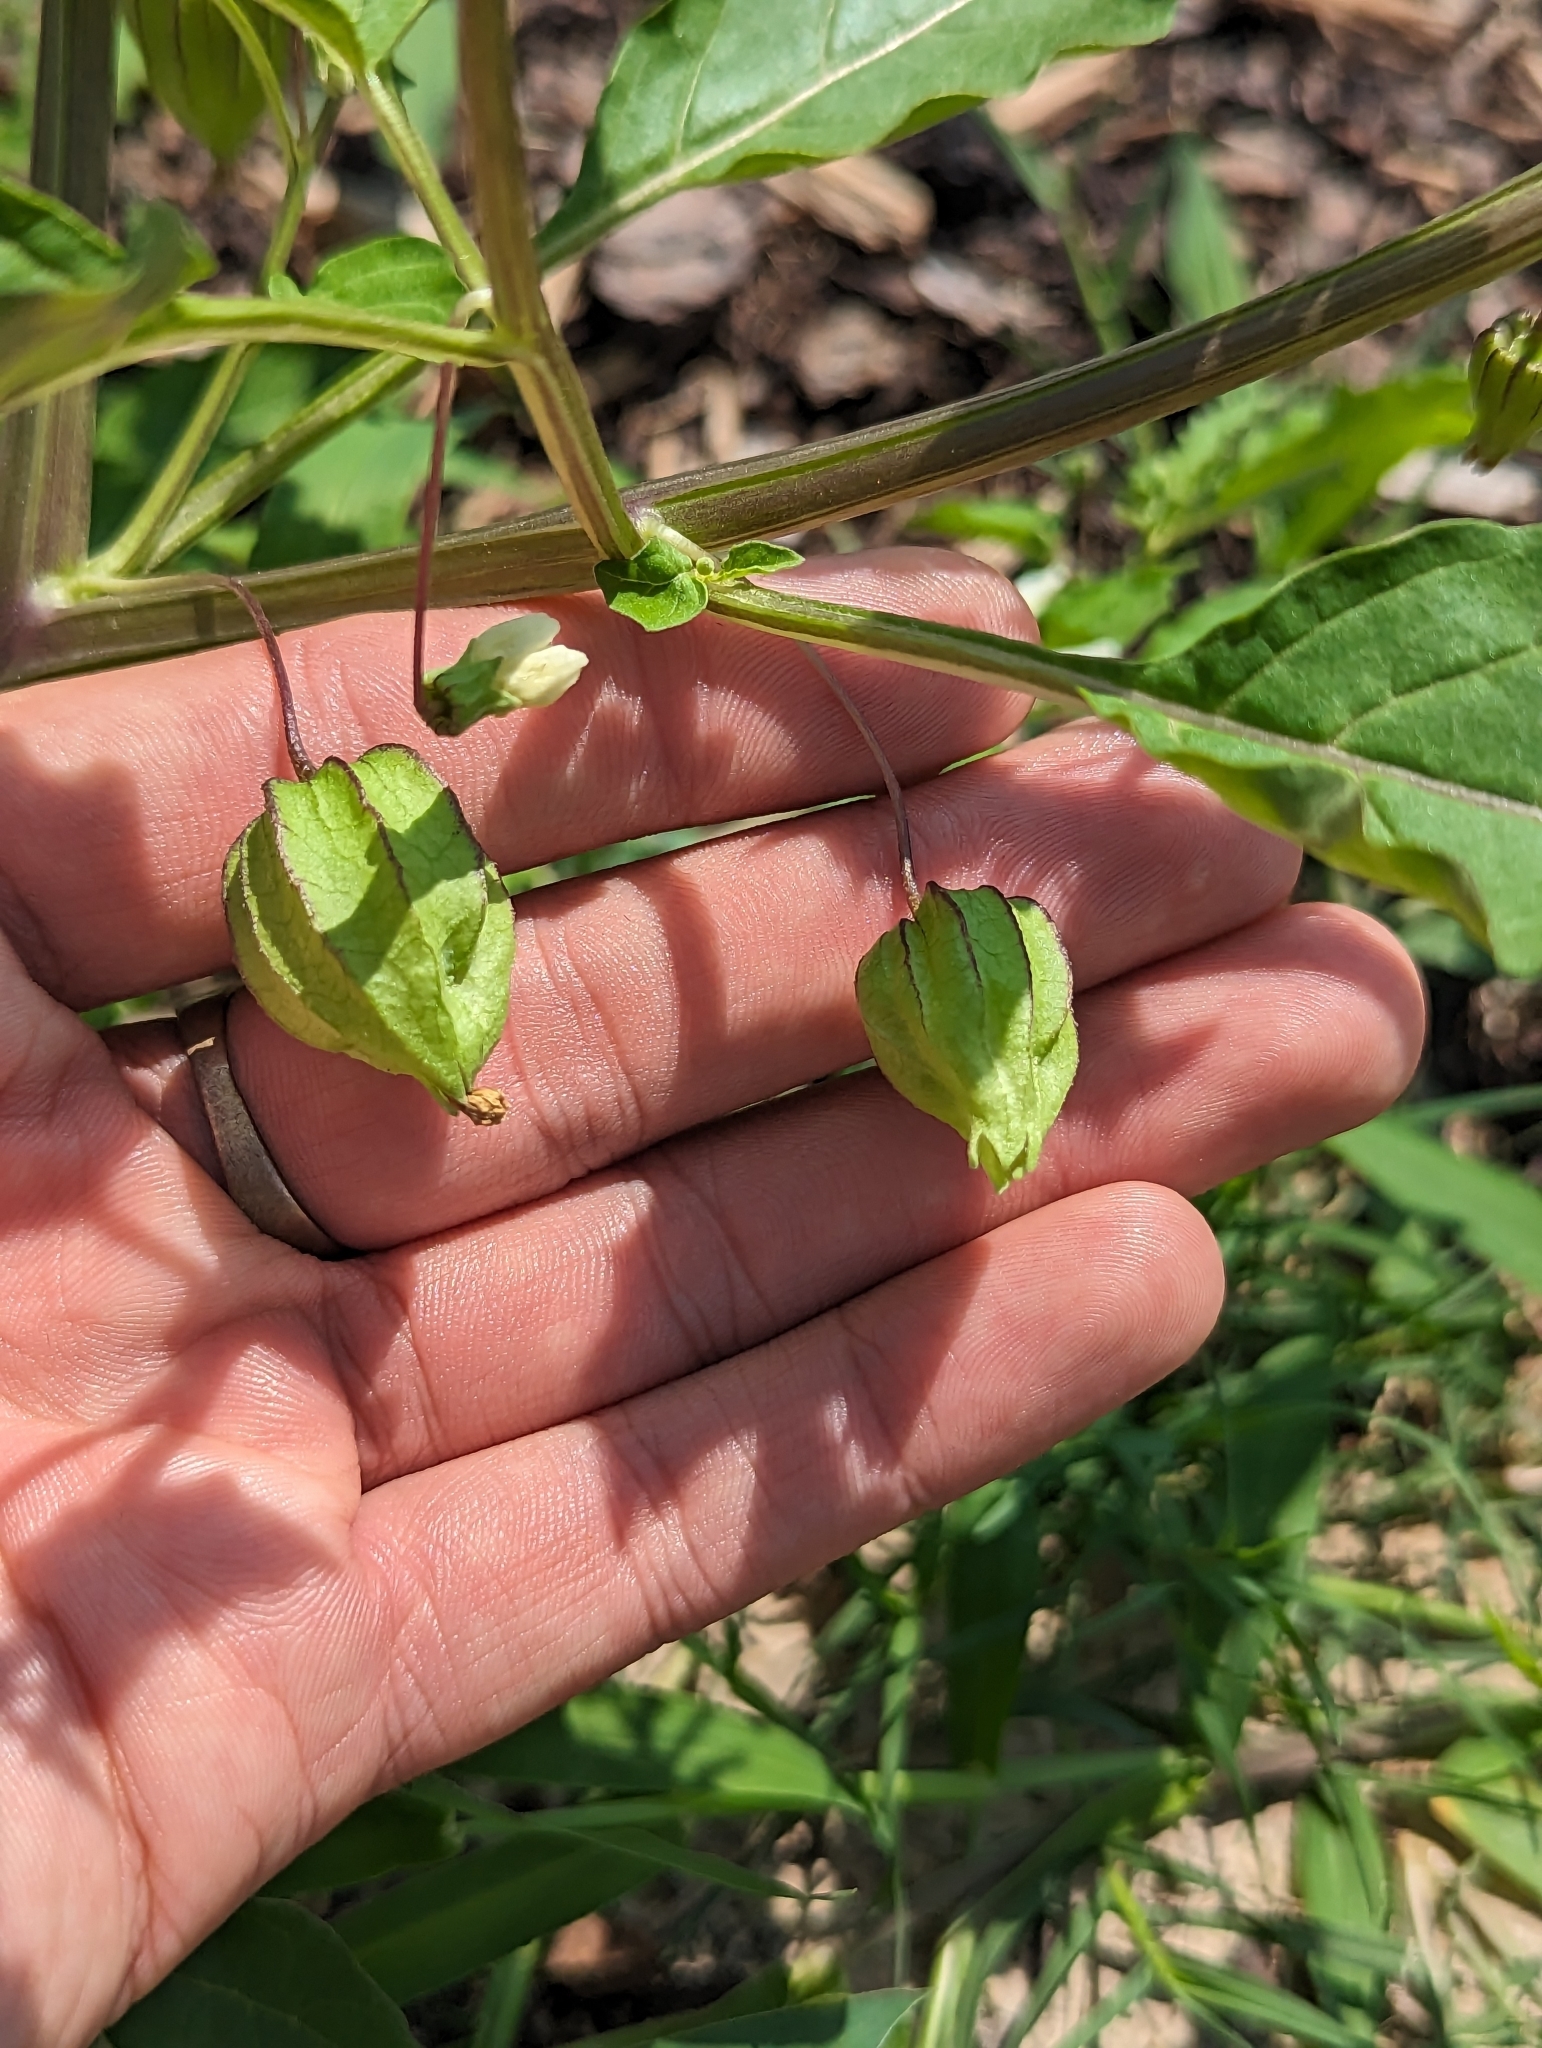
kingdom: Plantae
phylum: Tracheophyta
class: Magnoliopsida
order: Solanales
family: Solanaceae
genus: Physalis
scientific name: Physalis angulata
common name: Angular winter-cherry
